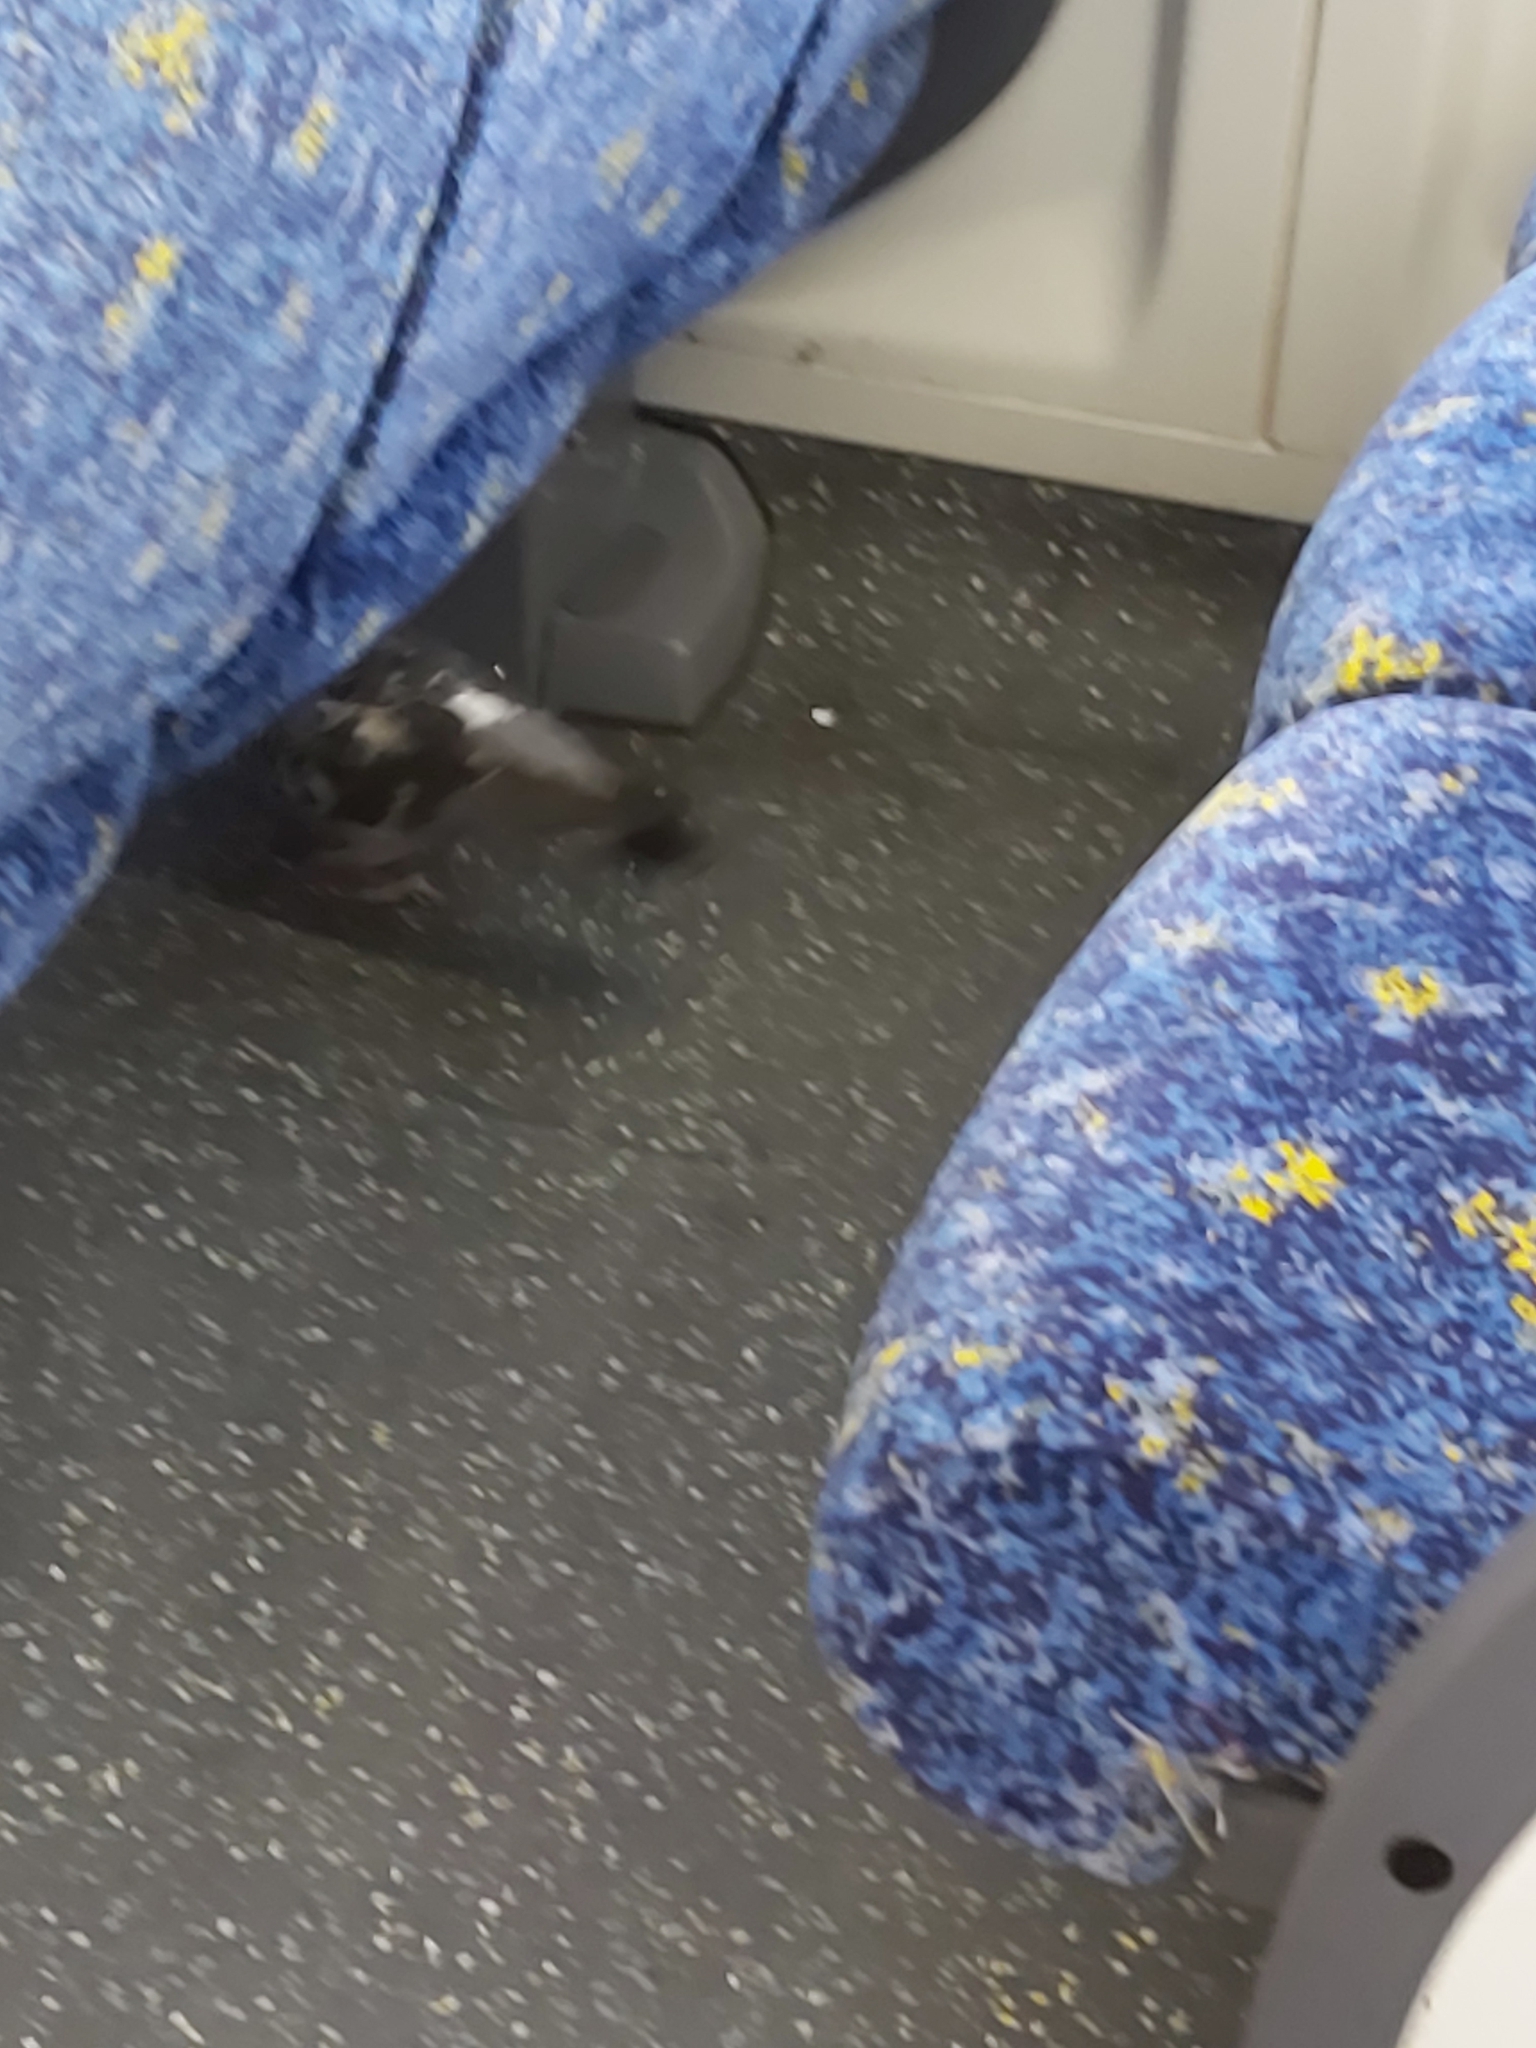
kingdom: Animalia
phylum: Chordata
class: Aves
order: Columbiformes
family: Columbidae
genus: Columba
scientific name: Columba livia
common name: Rock pigeon
